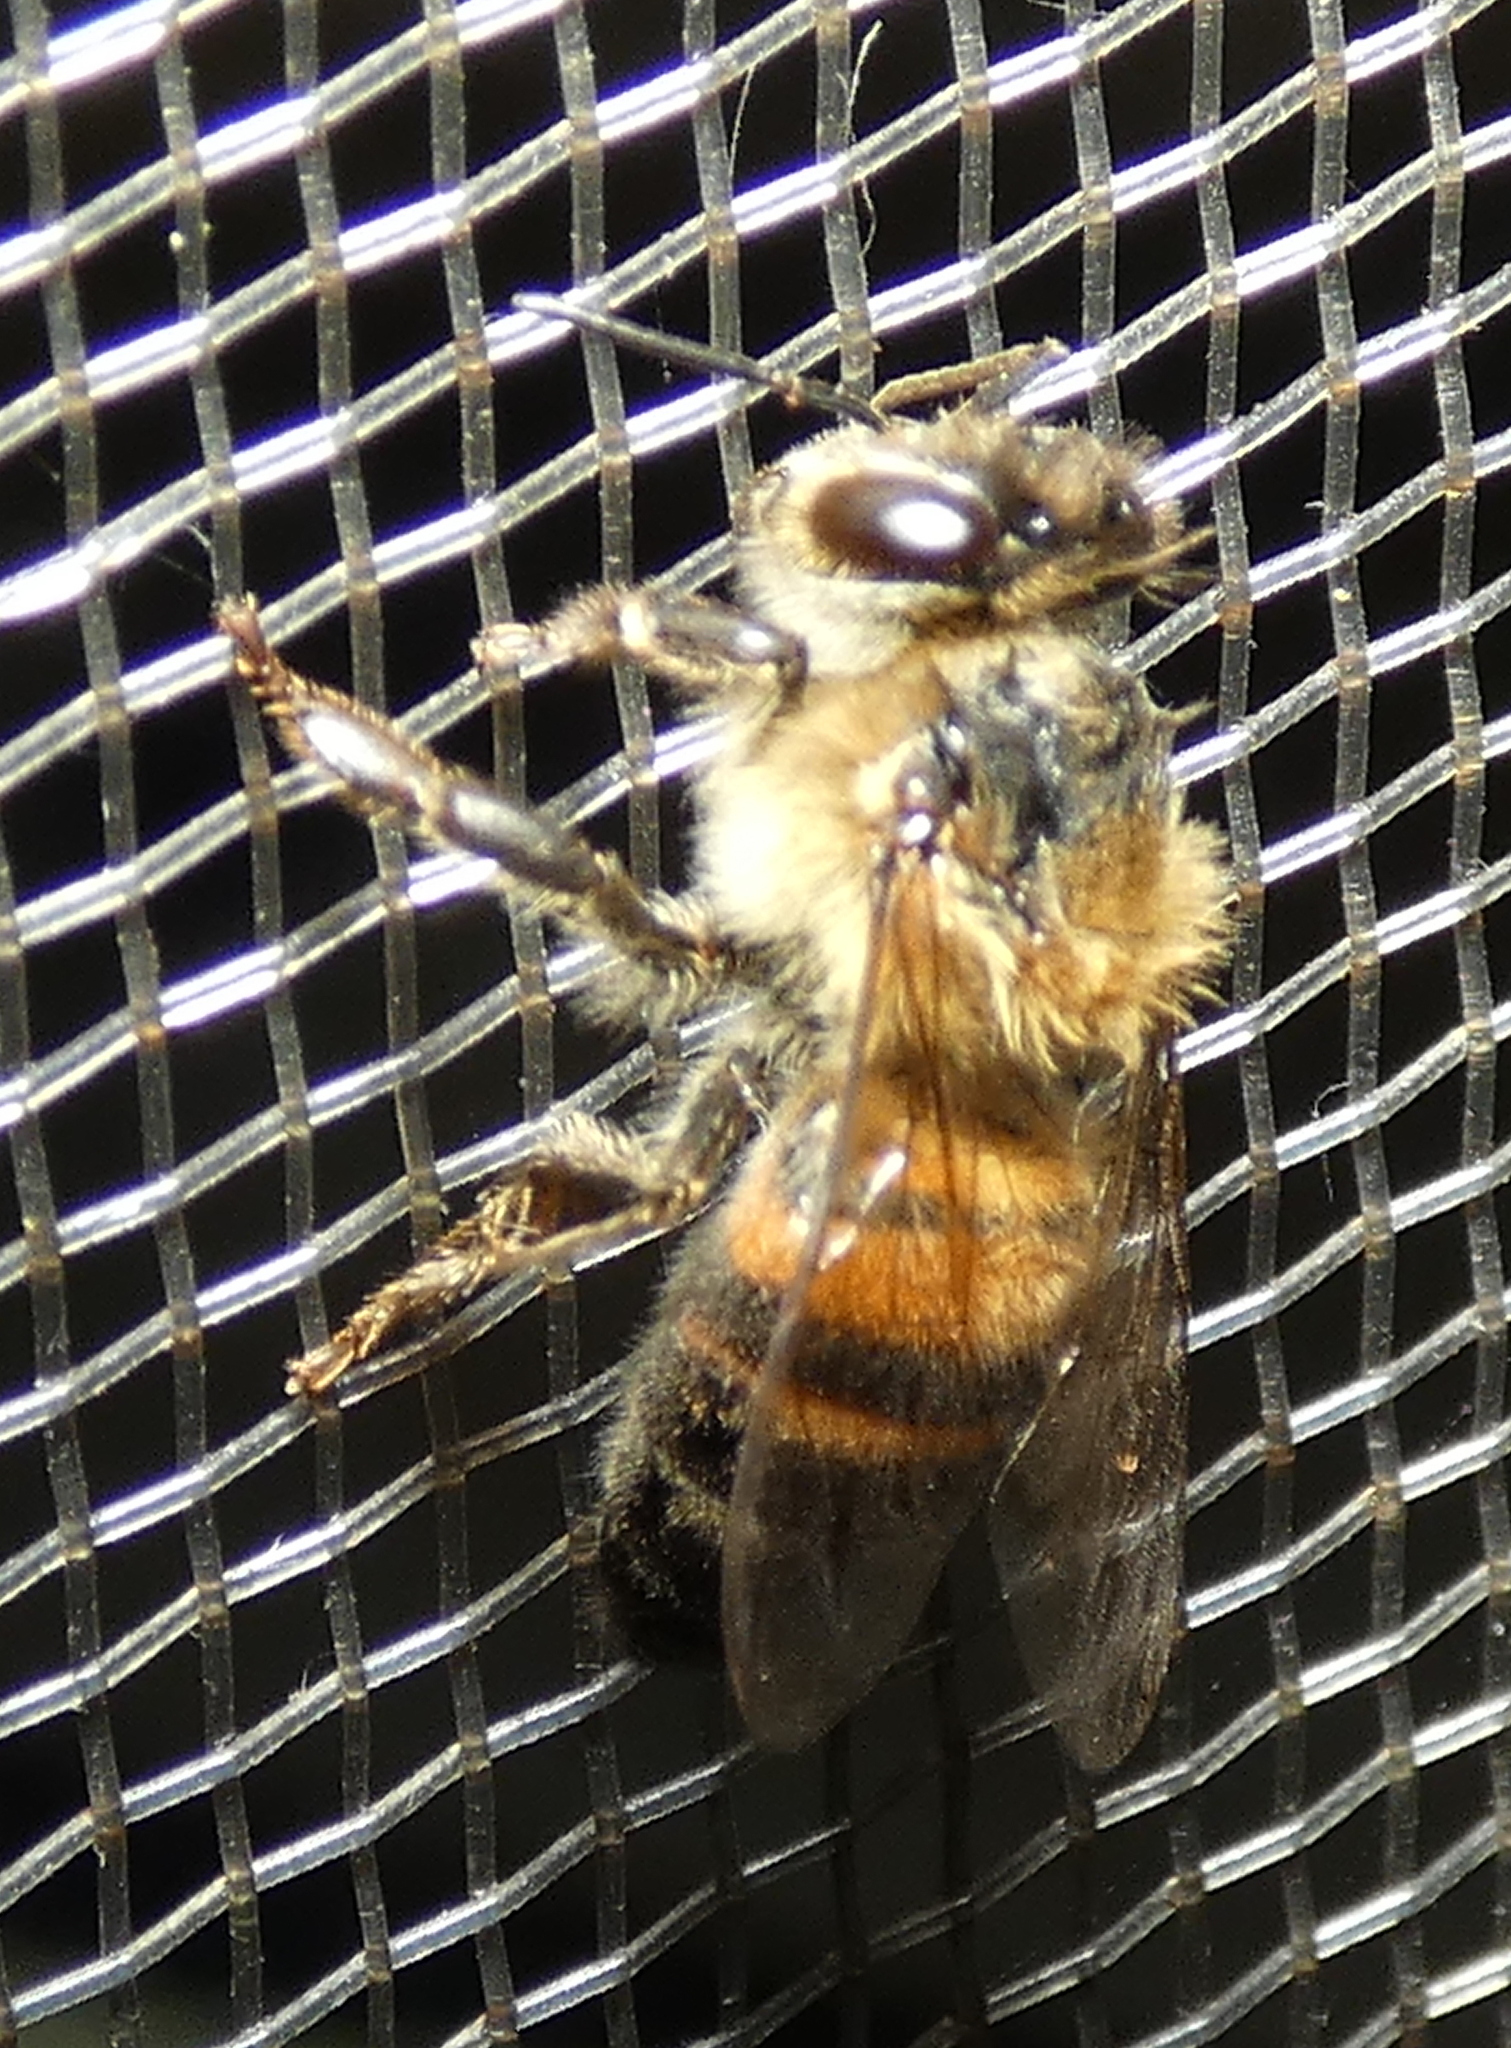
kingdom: Animalia
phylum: Arthropoda
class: Insecta
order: Hymenoptera
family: Apidae
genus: Apis
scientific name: Apis mellifera
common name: Honey bee
